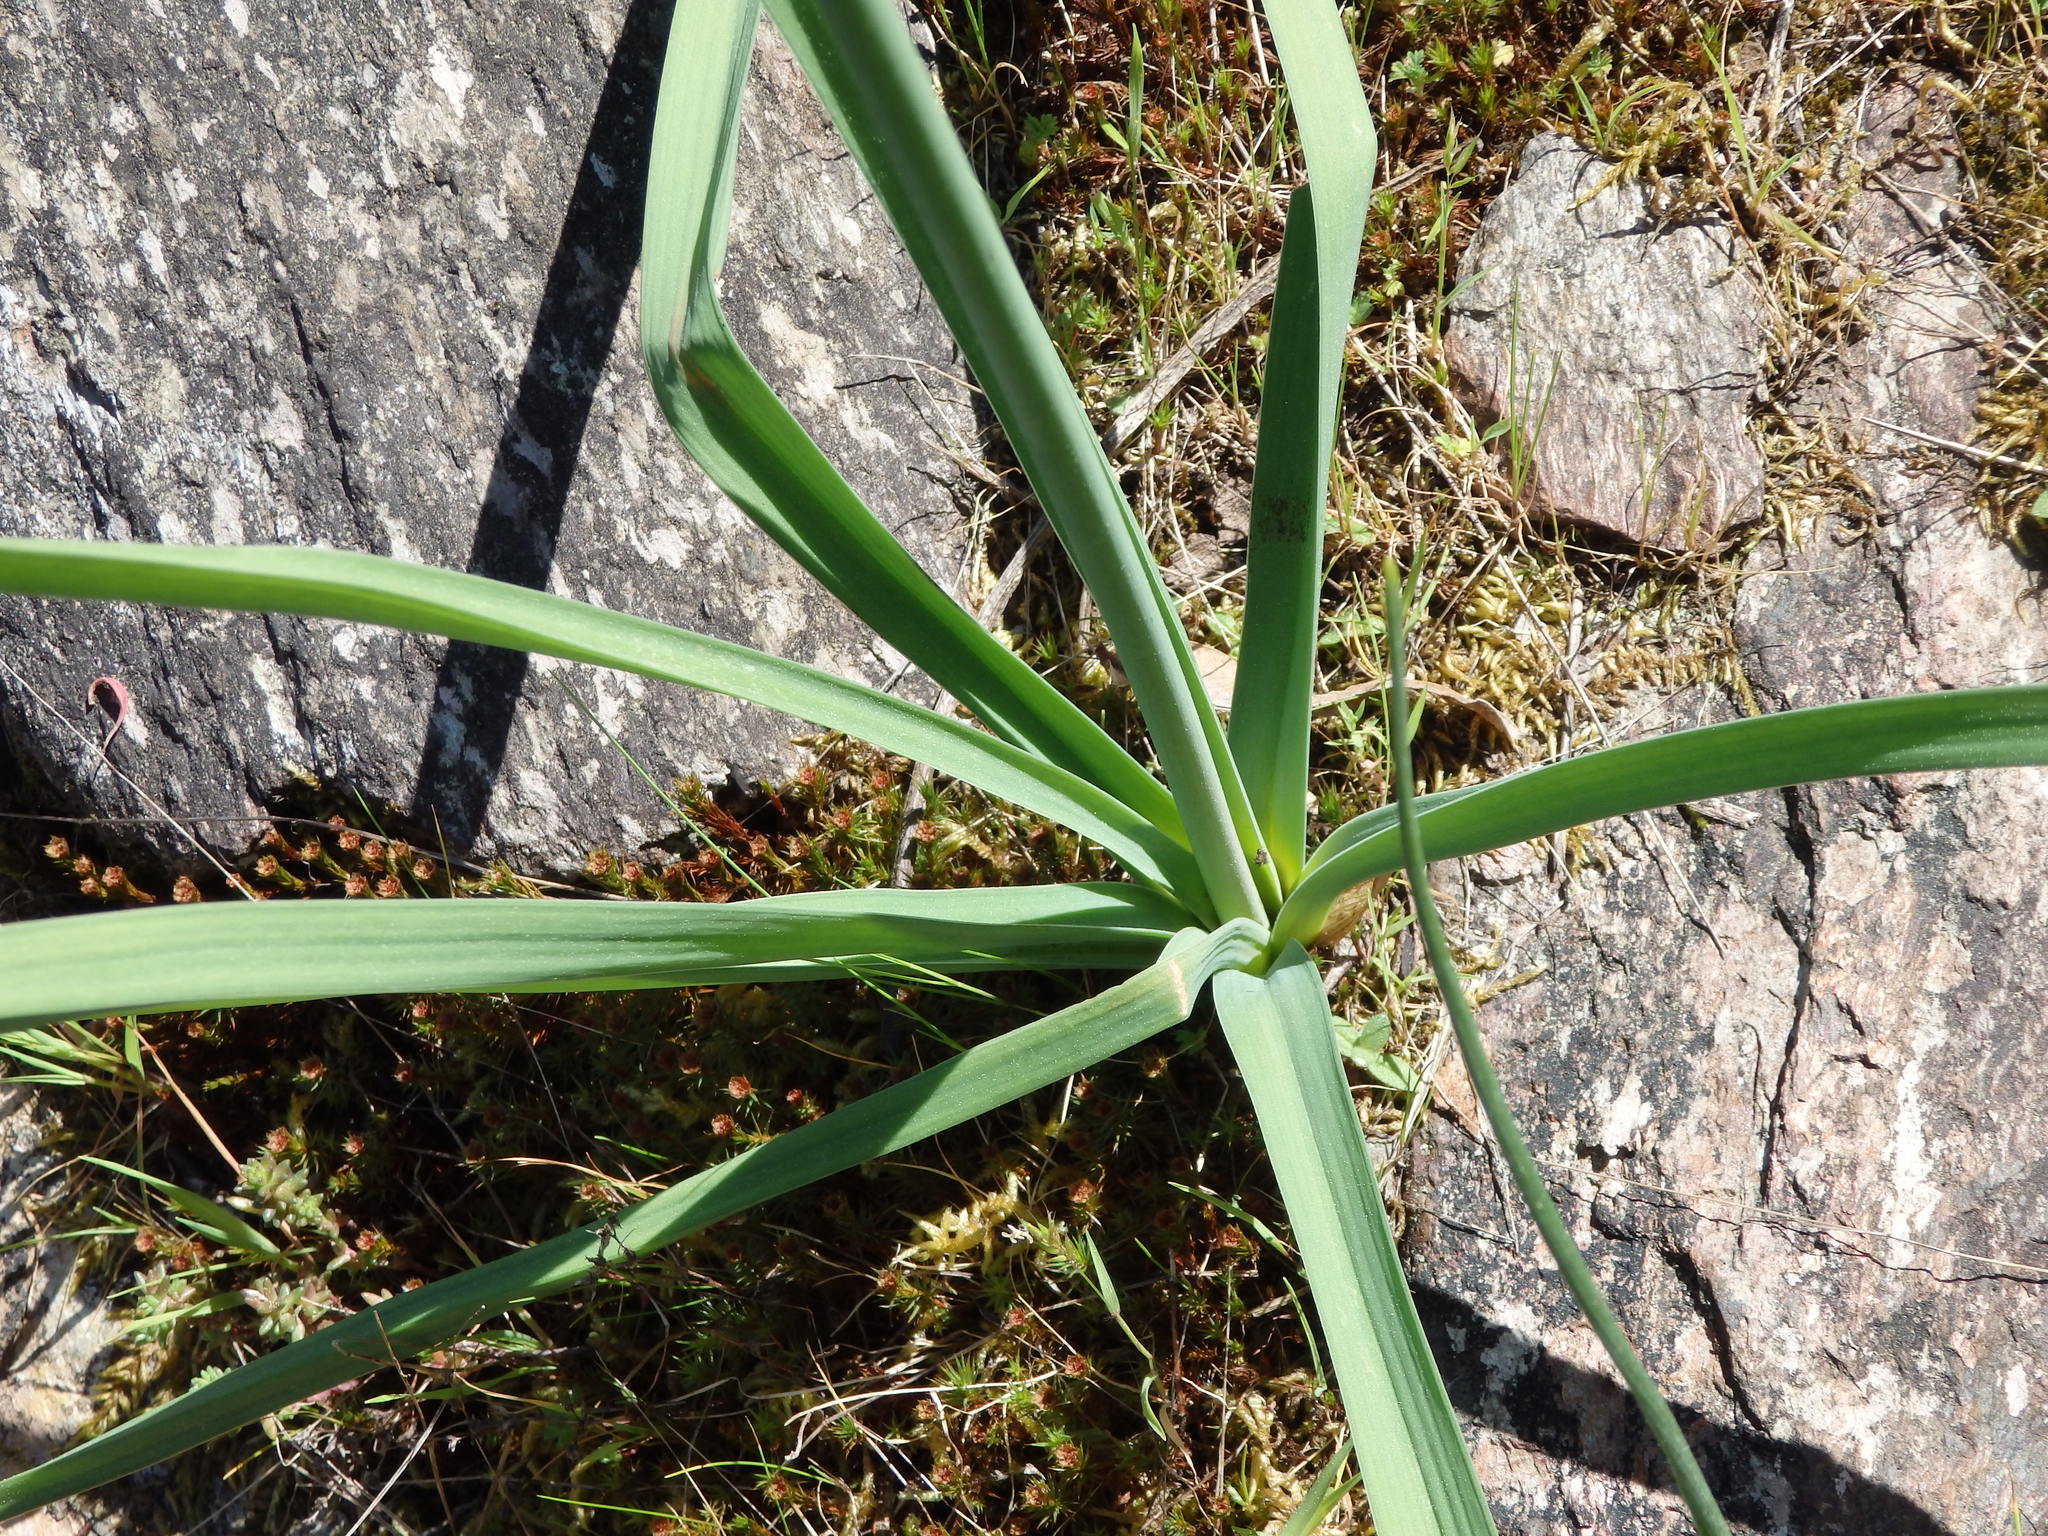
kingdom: Plantae
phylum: Tracheophyta
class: Liliopsida
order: Asparagales
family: Asphodelaceae
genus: Asphodelus
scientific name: Asphodelus serotinus
